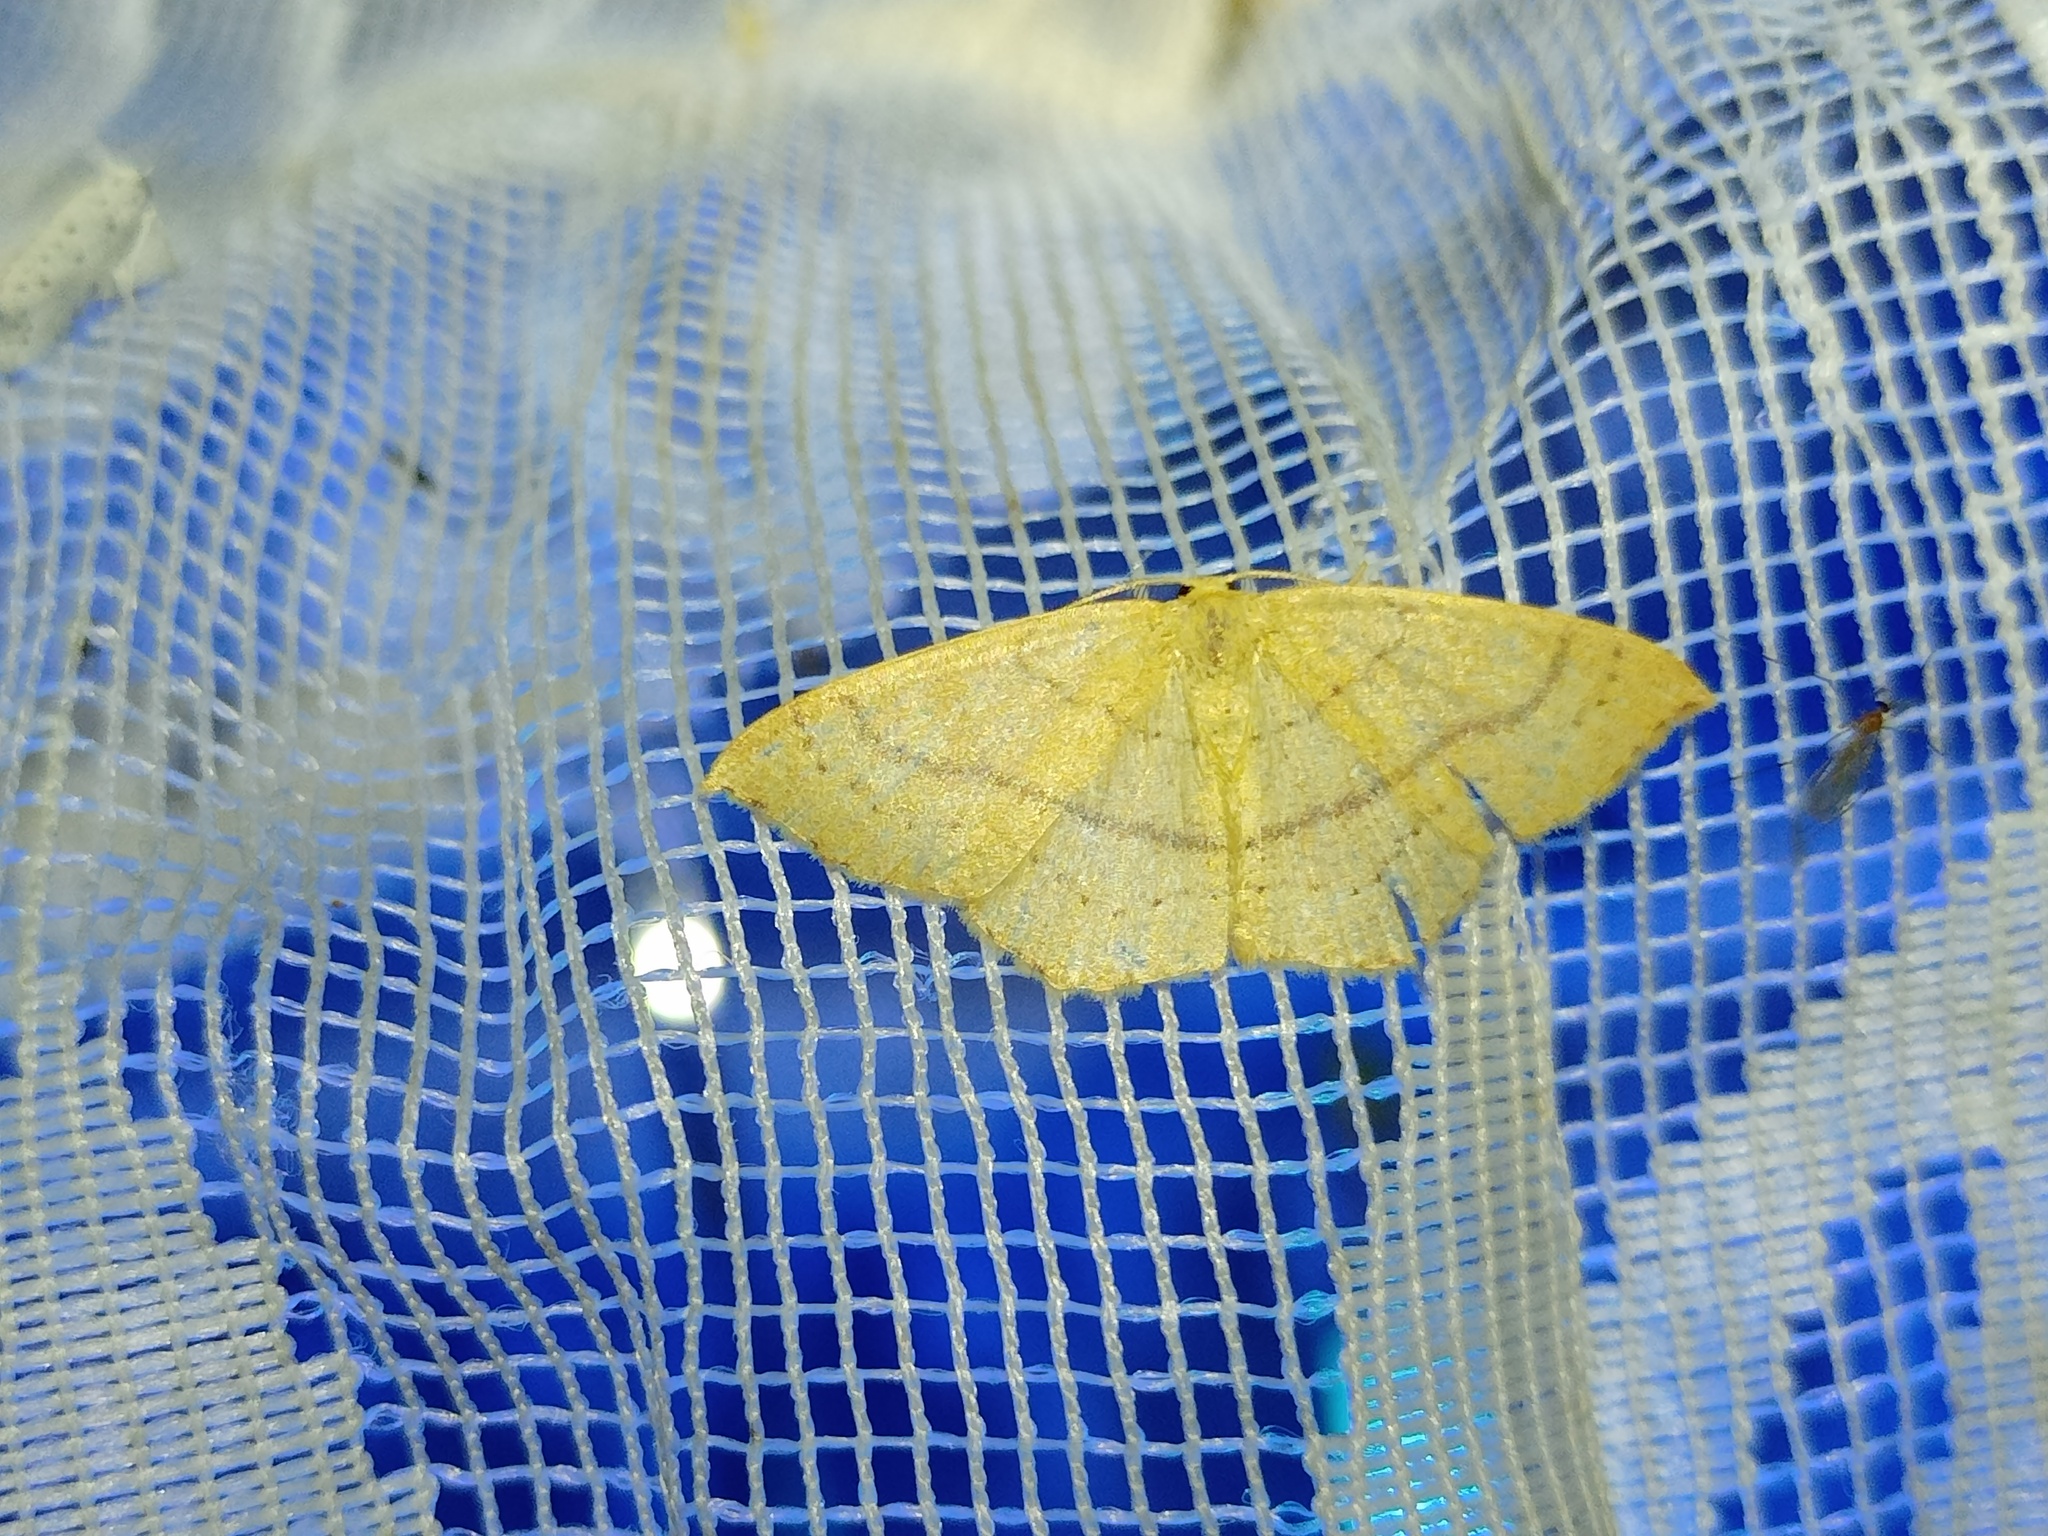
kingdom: Animalia
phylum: Arthropoda
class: Insecta
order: Lepidoptera
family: Geometridae
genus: Cyclophora
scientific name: Cyclophora linearia
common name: Clay triple-lines
